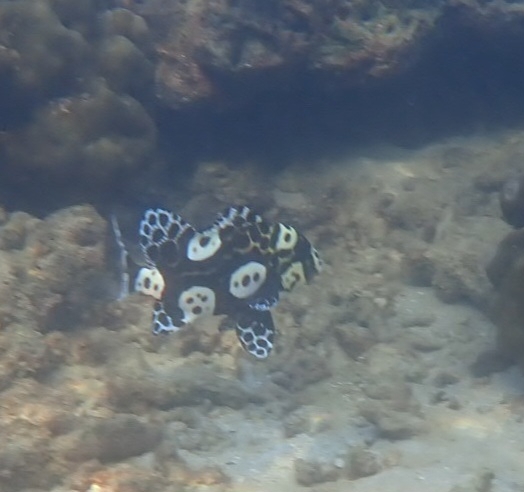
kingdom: Animalia
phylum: Chordata
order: Perciformes
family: Haemulidae
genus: Plectorhinchus
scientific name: Plectorhinchus chaetodonoides
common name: Harlequin sweetlips
